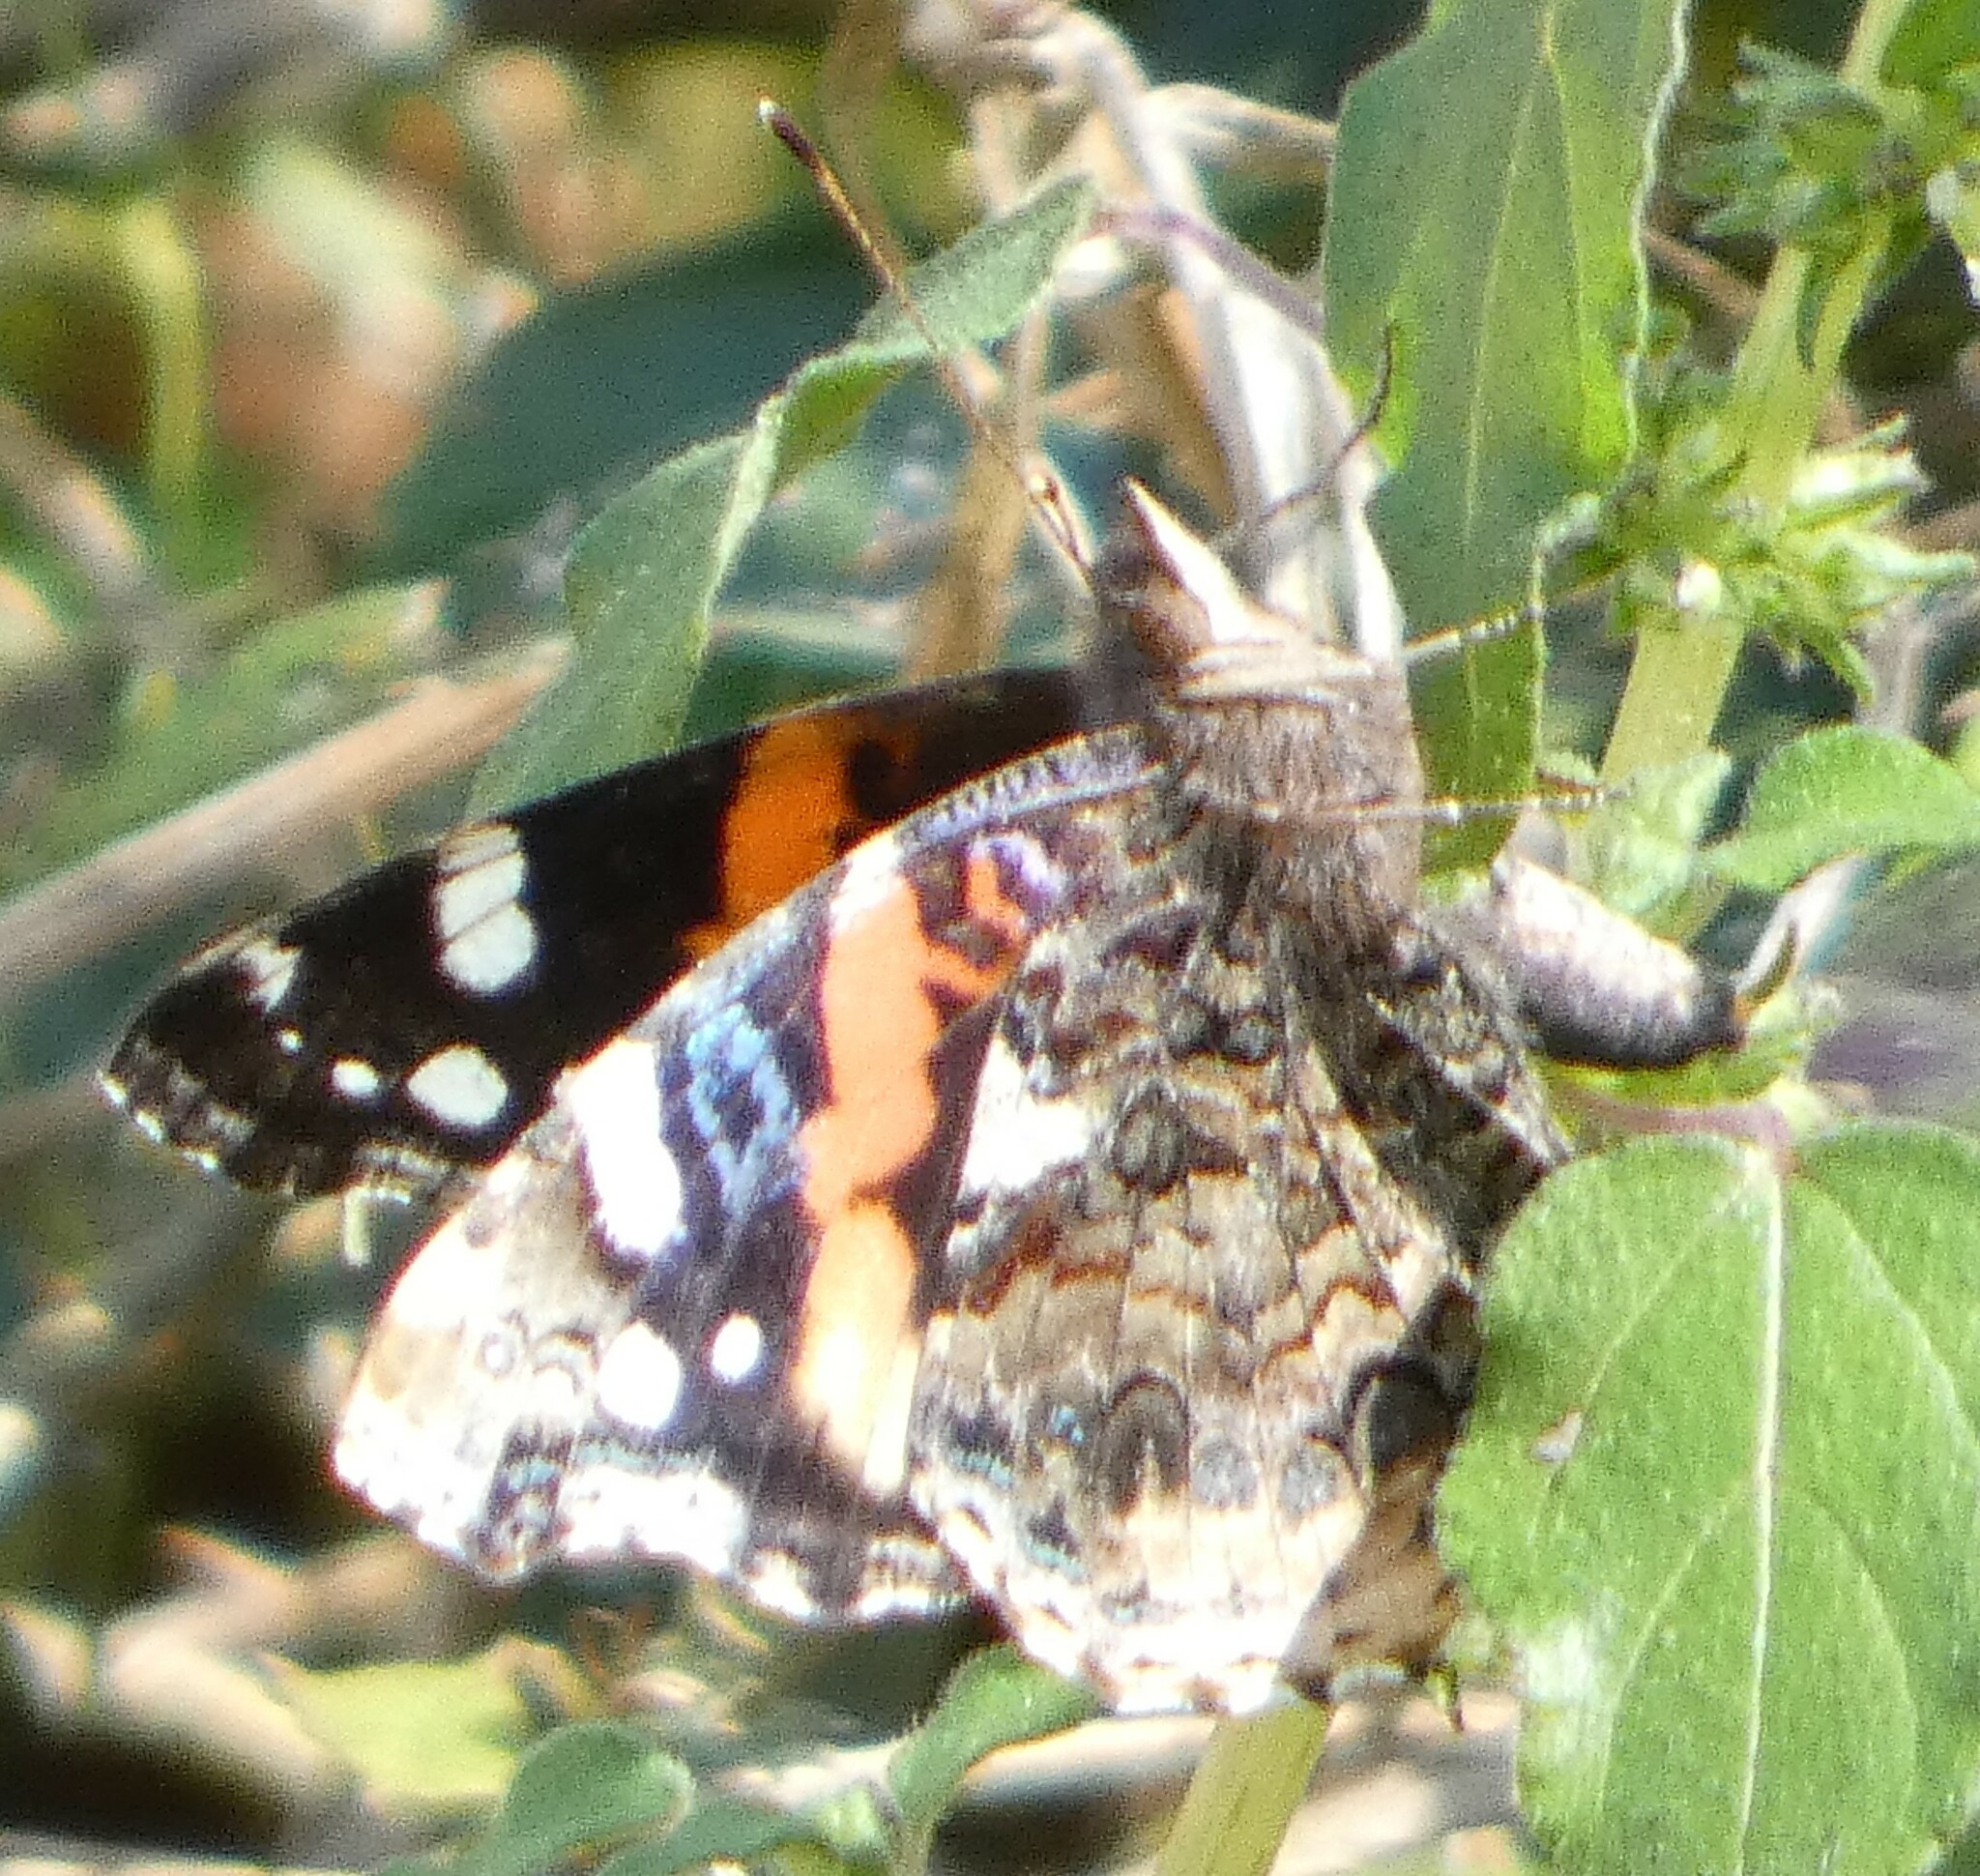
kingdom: Animalia
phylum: Arthropoda
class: Insecta
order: Lepidoptera
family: Nymphalidae
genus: Vanessa
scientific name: Vanessa atalanta
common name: Red admiral
